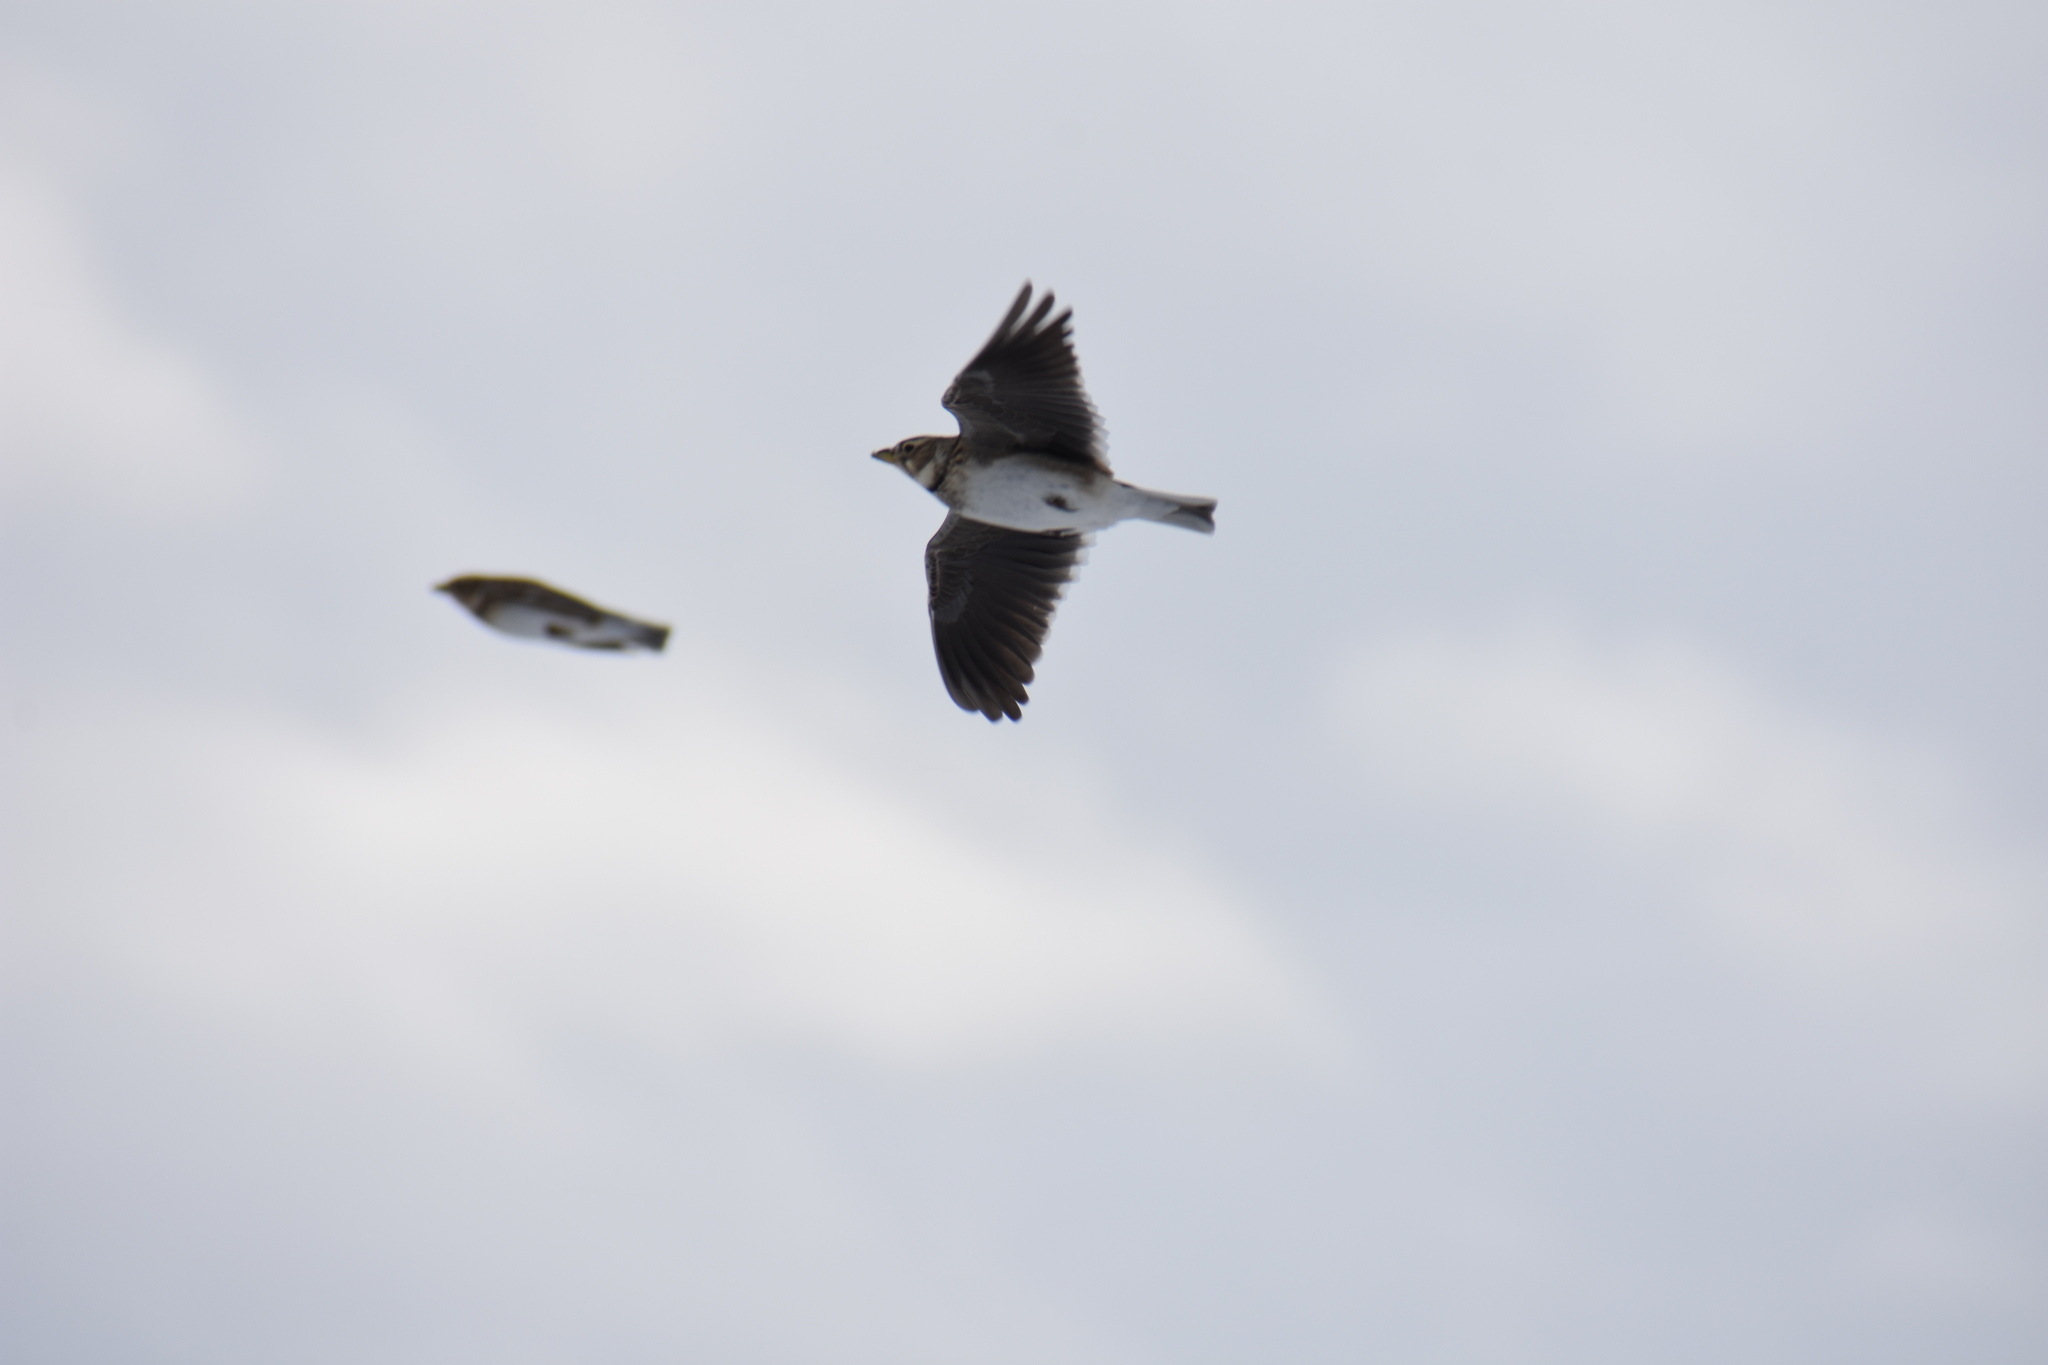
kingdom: Animalia
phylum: Chordata
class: Aves
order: Passeriformes
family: Alaudidae
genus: Melanocorypha
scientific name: Melanocorypha calandra
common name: Calandra lark
